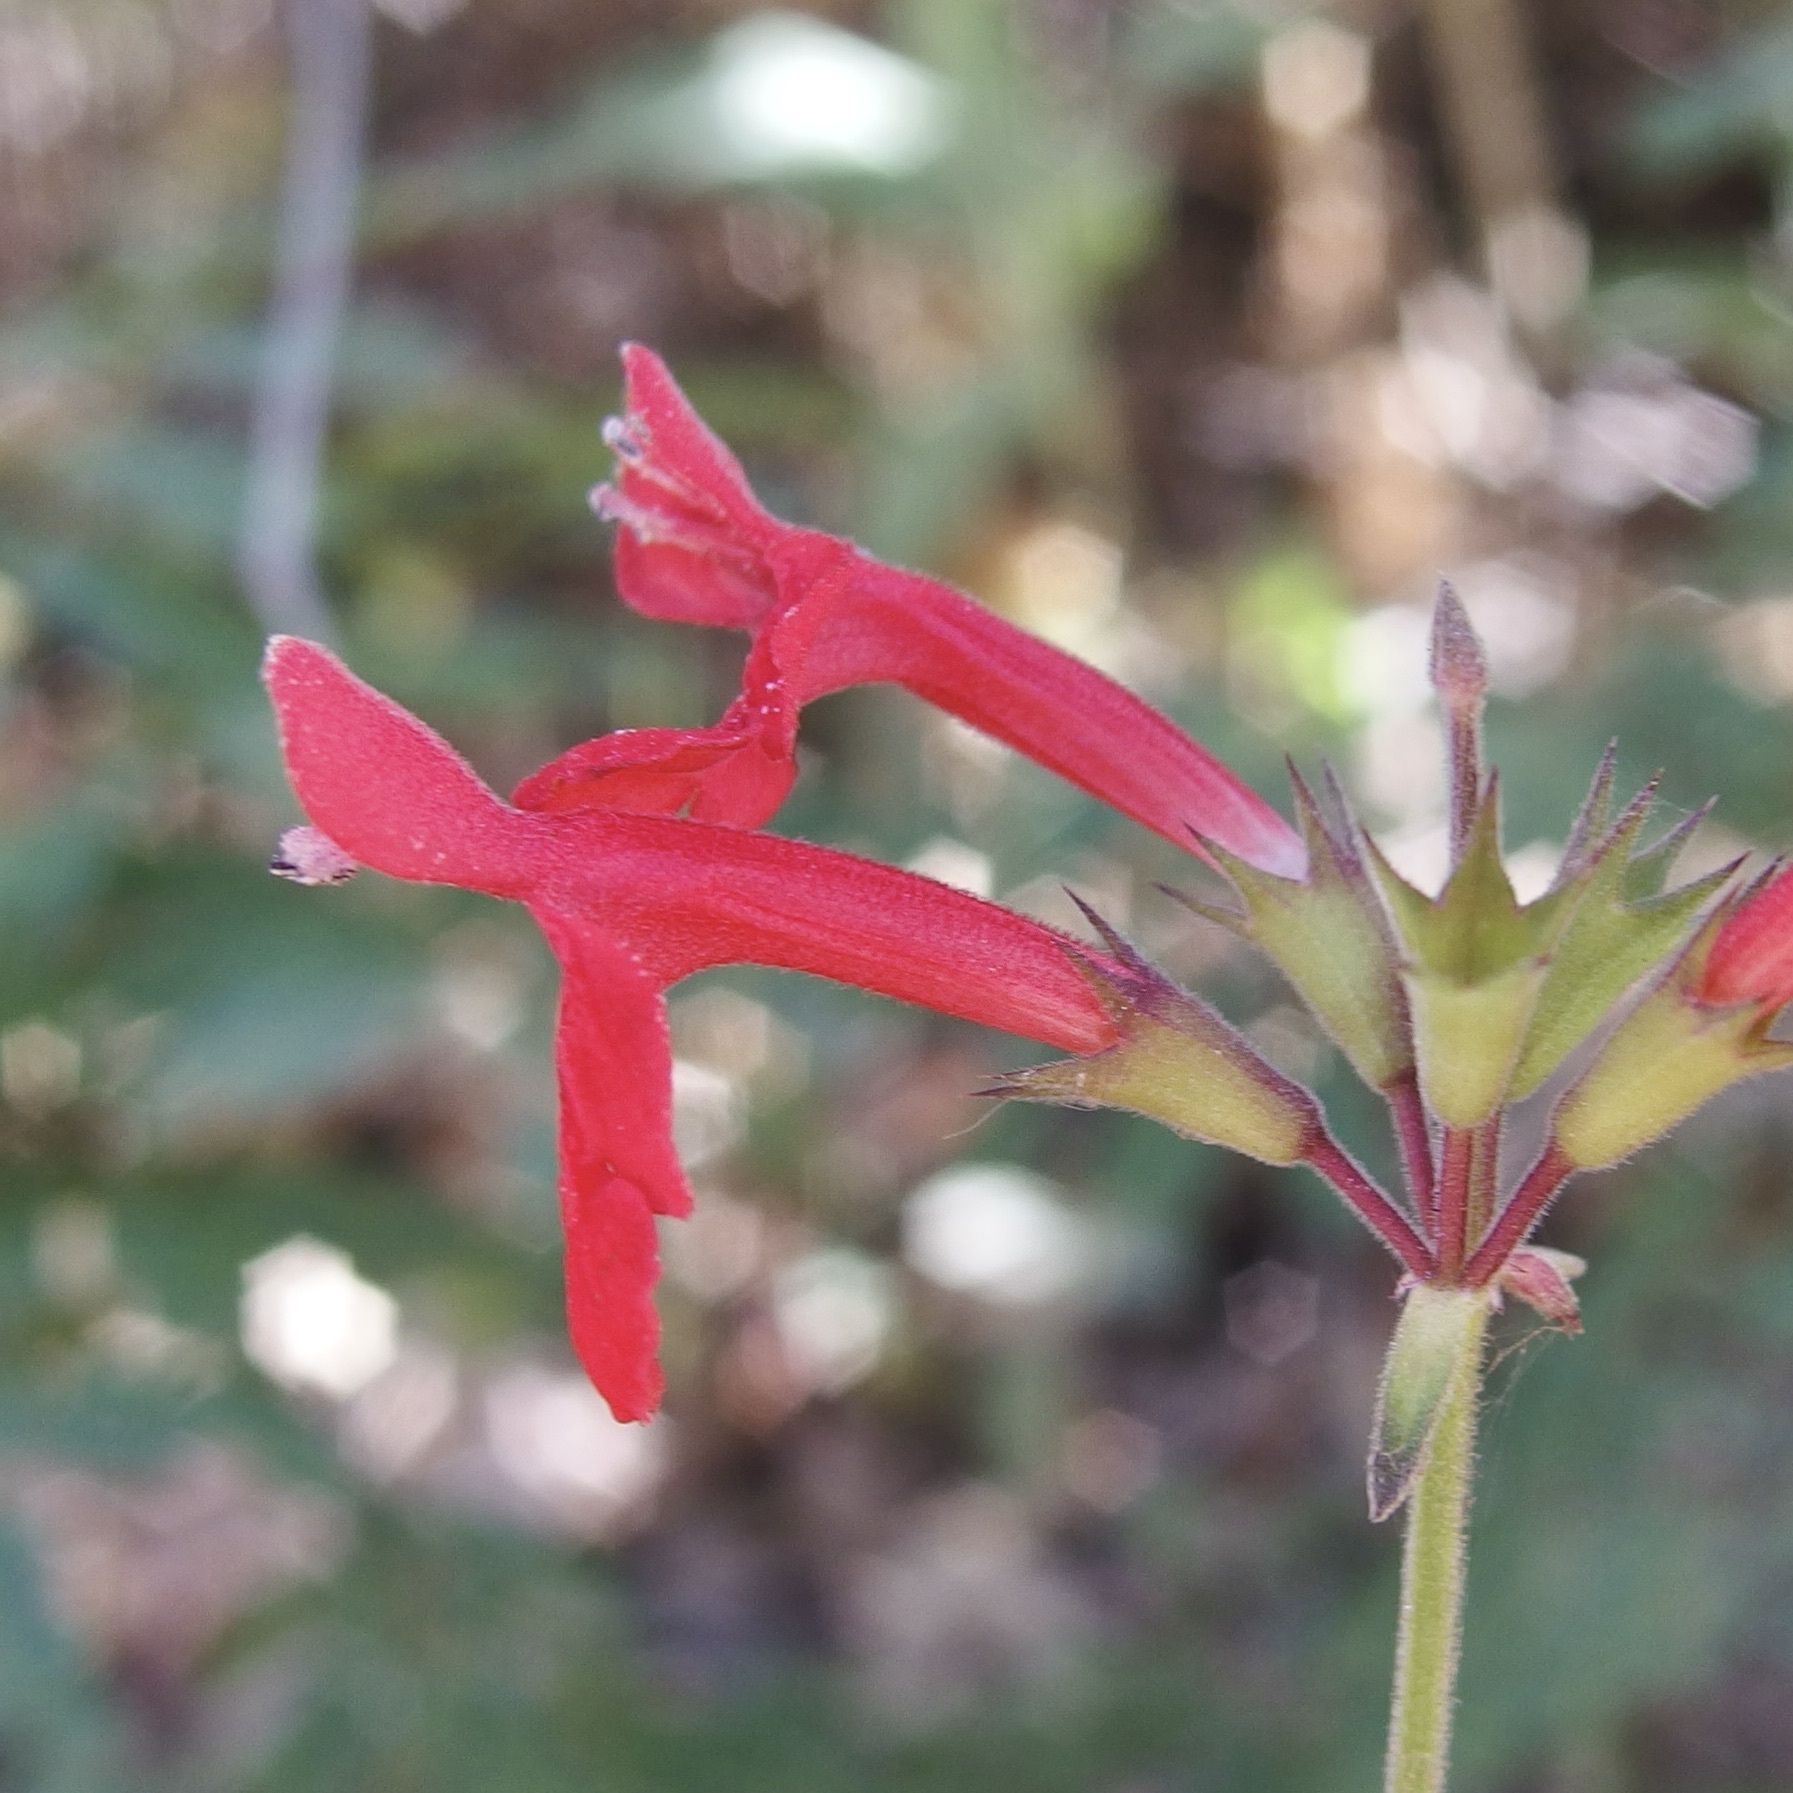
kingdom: Plantae
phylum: Tracheophyta
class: Magnoliopsida
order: Lamiales
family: Lamiaceae
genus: Stachys
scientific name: Stachys coccinea
